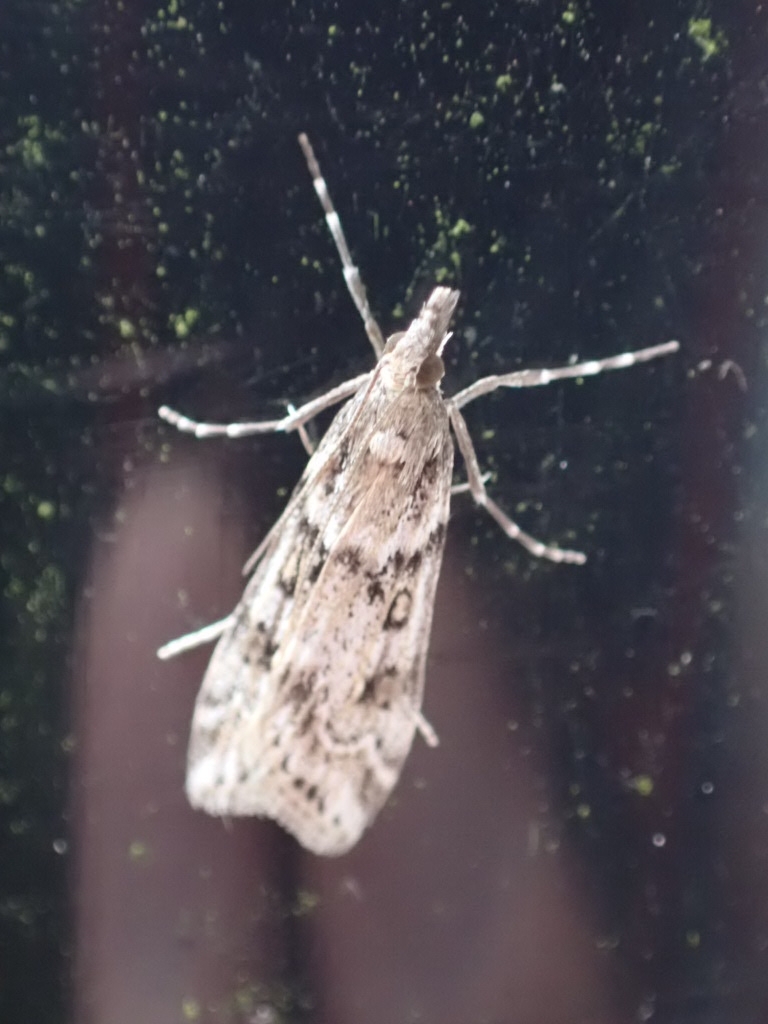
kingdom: Animalia
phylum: Arthropoda
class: Insecta
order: Lepidoptera
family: Crambidae
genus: Eudonia
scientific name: Eudonia angustea
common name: Narrow-winged grey
